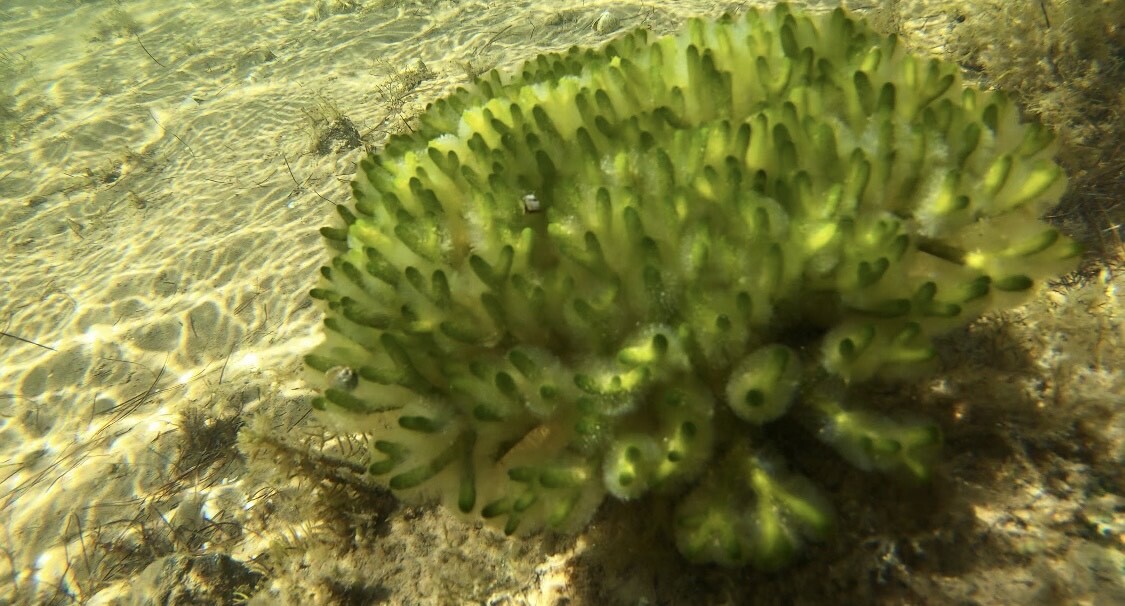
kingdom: Plantae
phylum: Chlorophyta
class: Ulvophyceae
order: Bryopsidales
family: Codiaceae
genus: Codium
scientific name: Codium fragile
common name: Dead man's fingers
